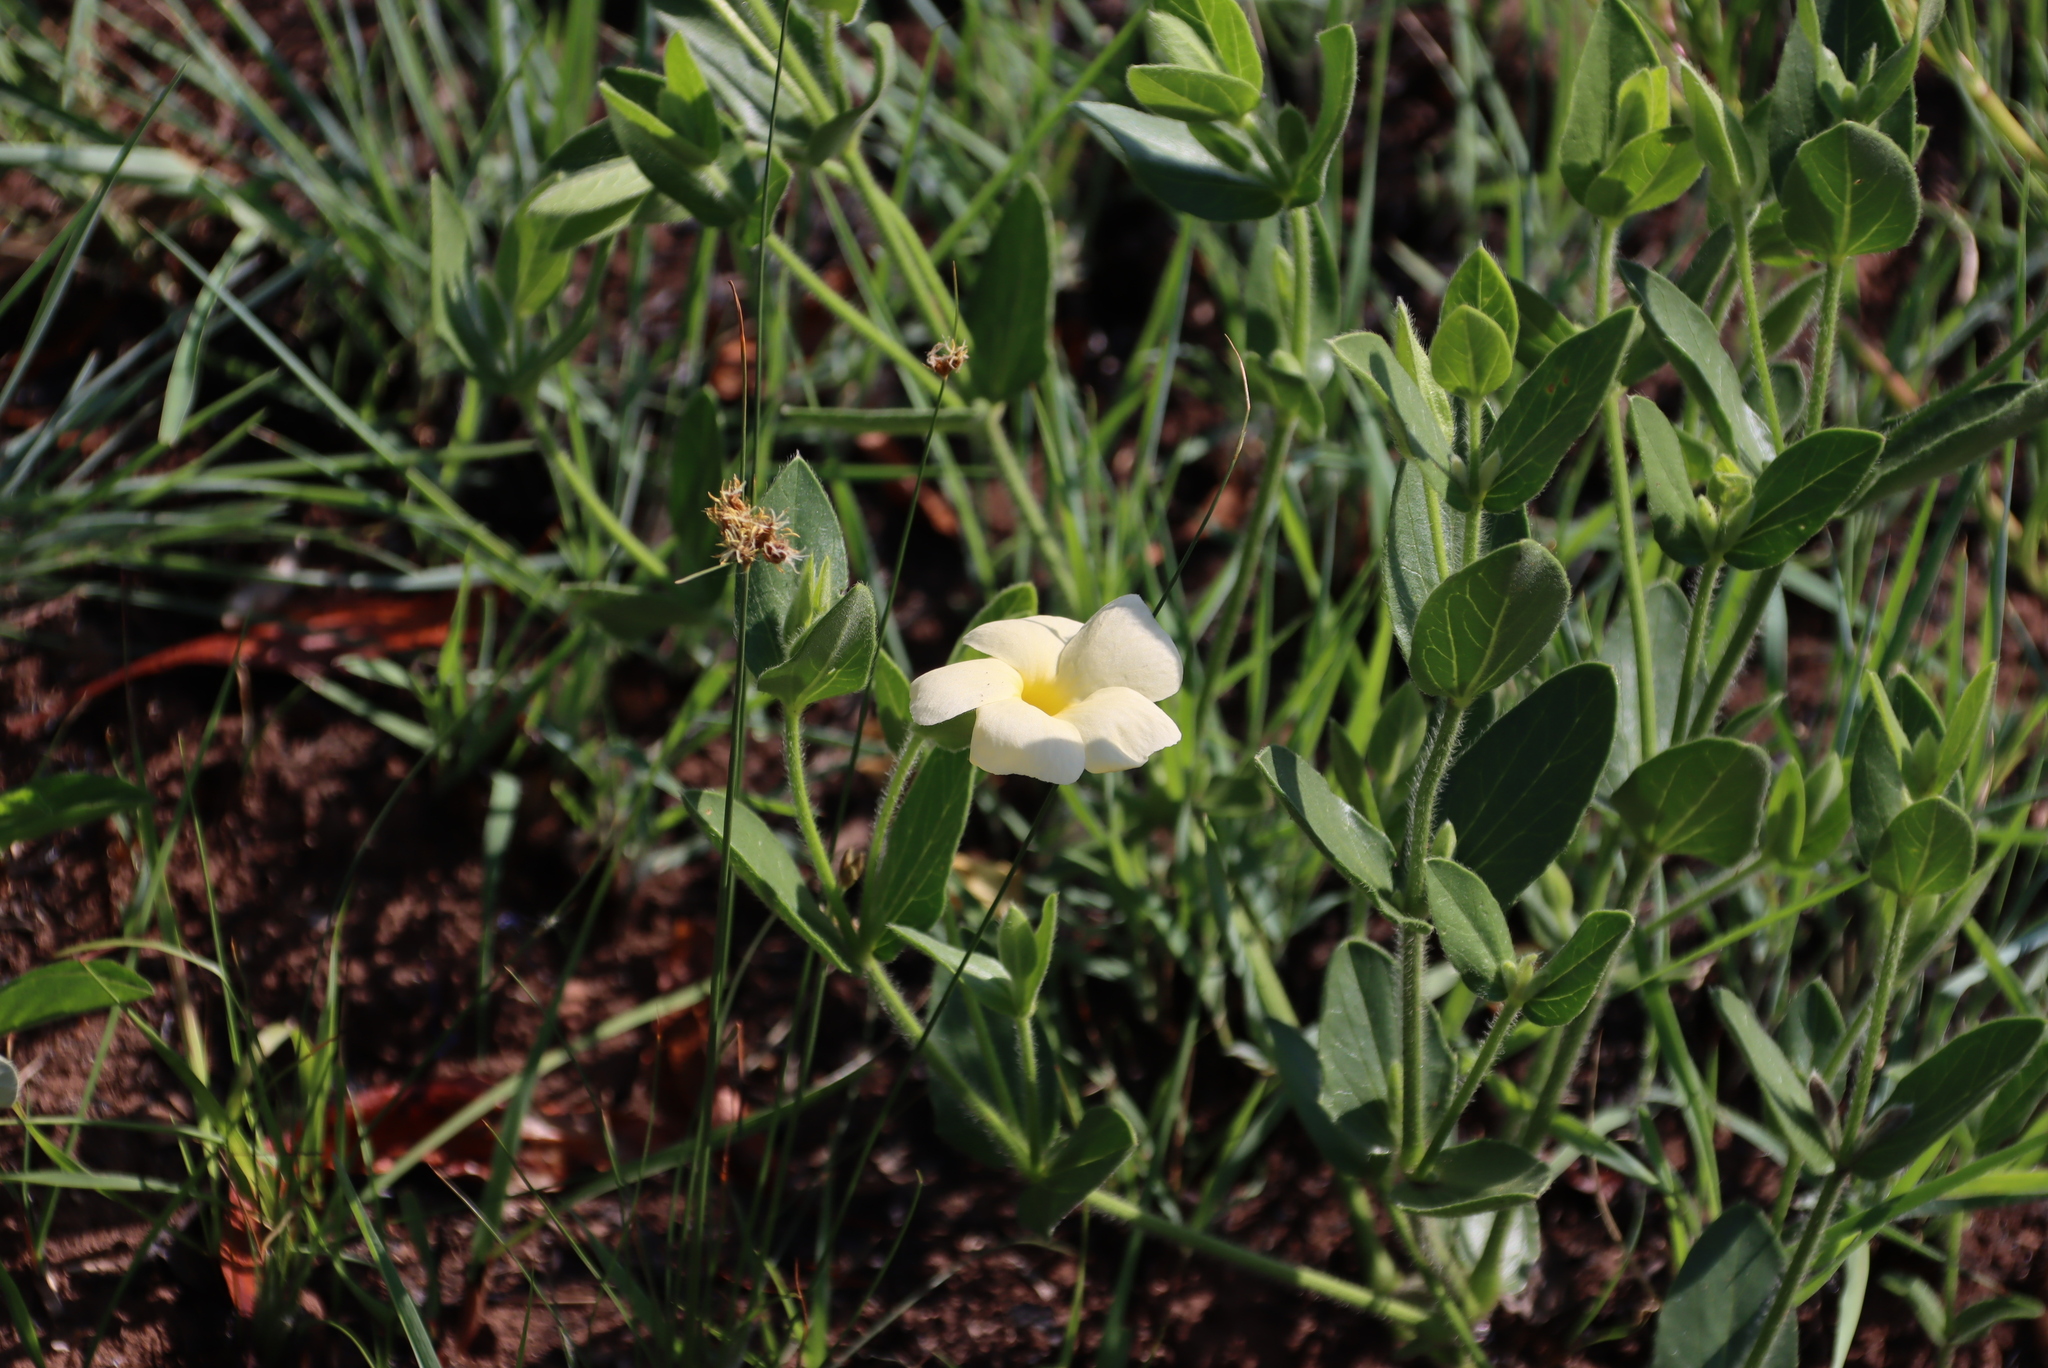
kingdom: Plantae
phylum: Tracheophyta
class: Magnoliopsida
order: Lamiales
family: Acanthaceae
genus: Thunbergia
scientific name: Thunbergia atriplicifolia
